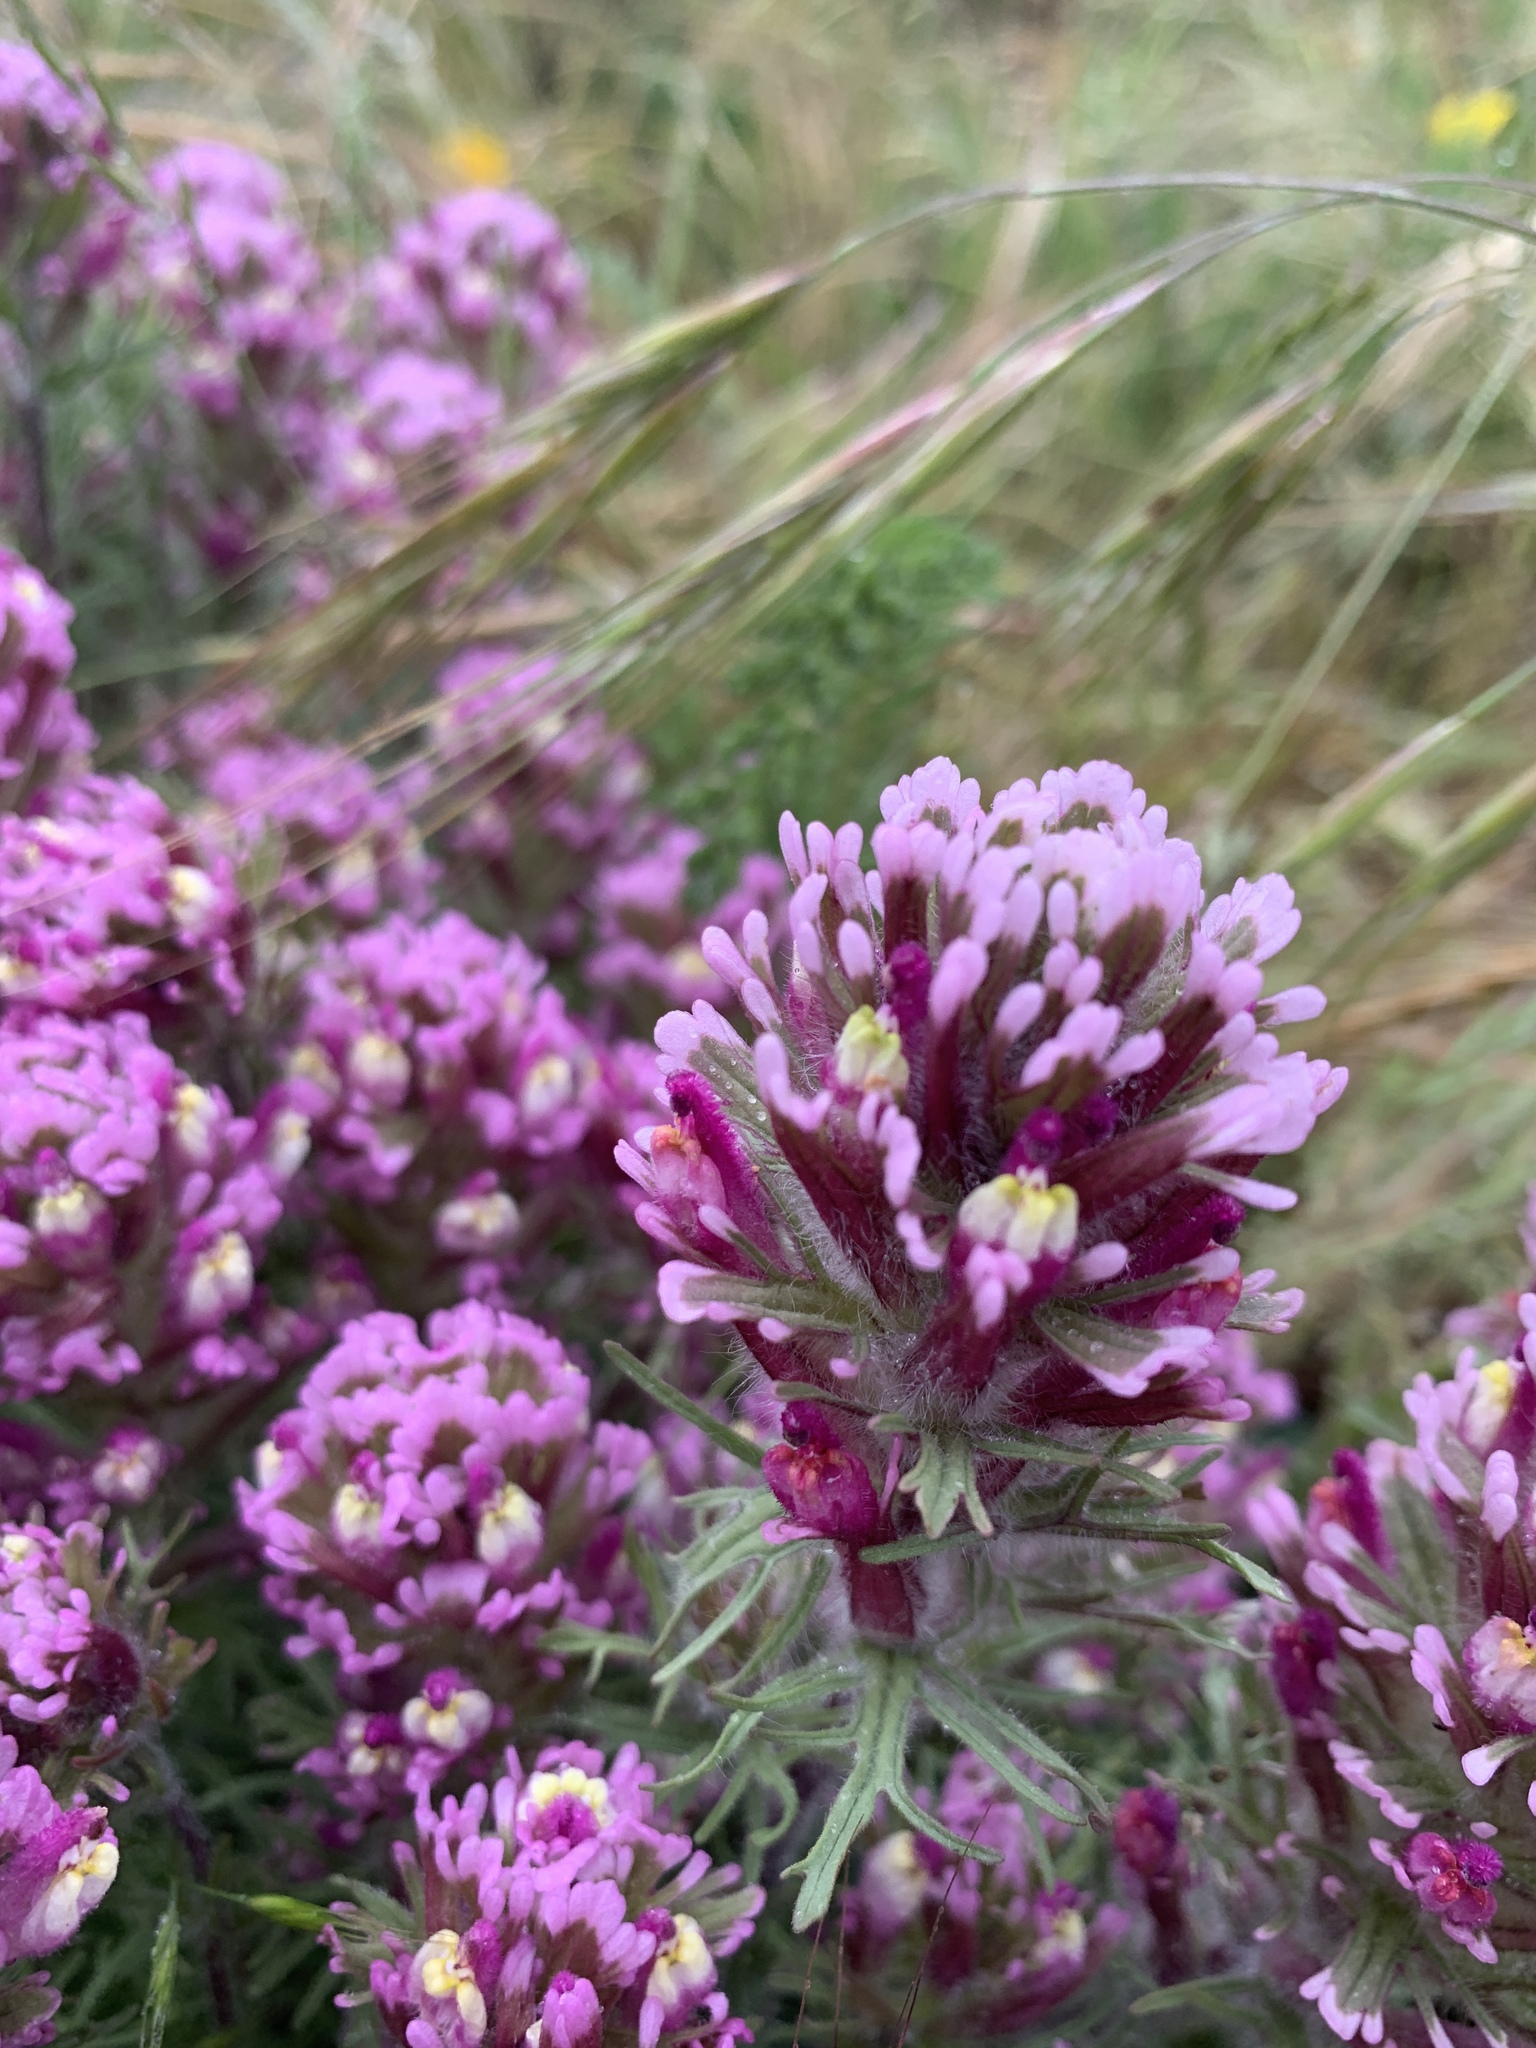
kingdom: Plantae
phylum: Tracheophyta
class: Magnoliopsida
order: Lamiales
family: Orobanchaceae
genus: Castilleja
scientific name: Castilleja exserta
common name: Purple owl-clover
